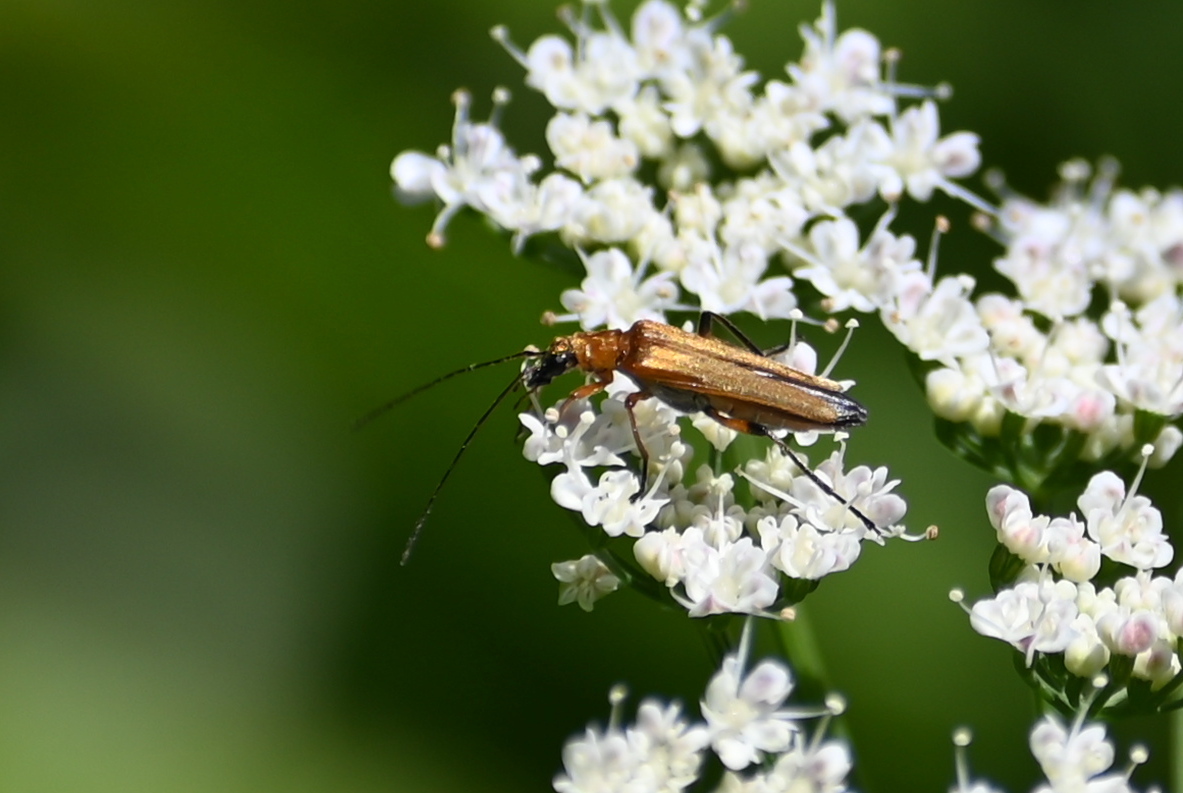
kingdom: Animalia
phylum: Arthropoda
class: Insecta
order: Coleoptera
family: Oedemeridae
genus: Oedemera
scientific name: Oedemera podagrariae
